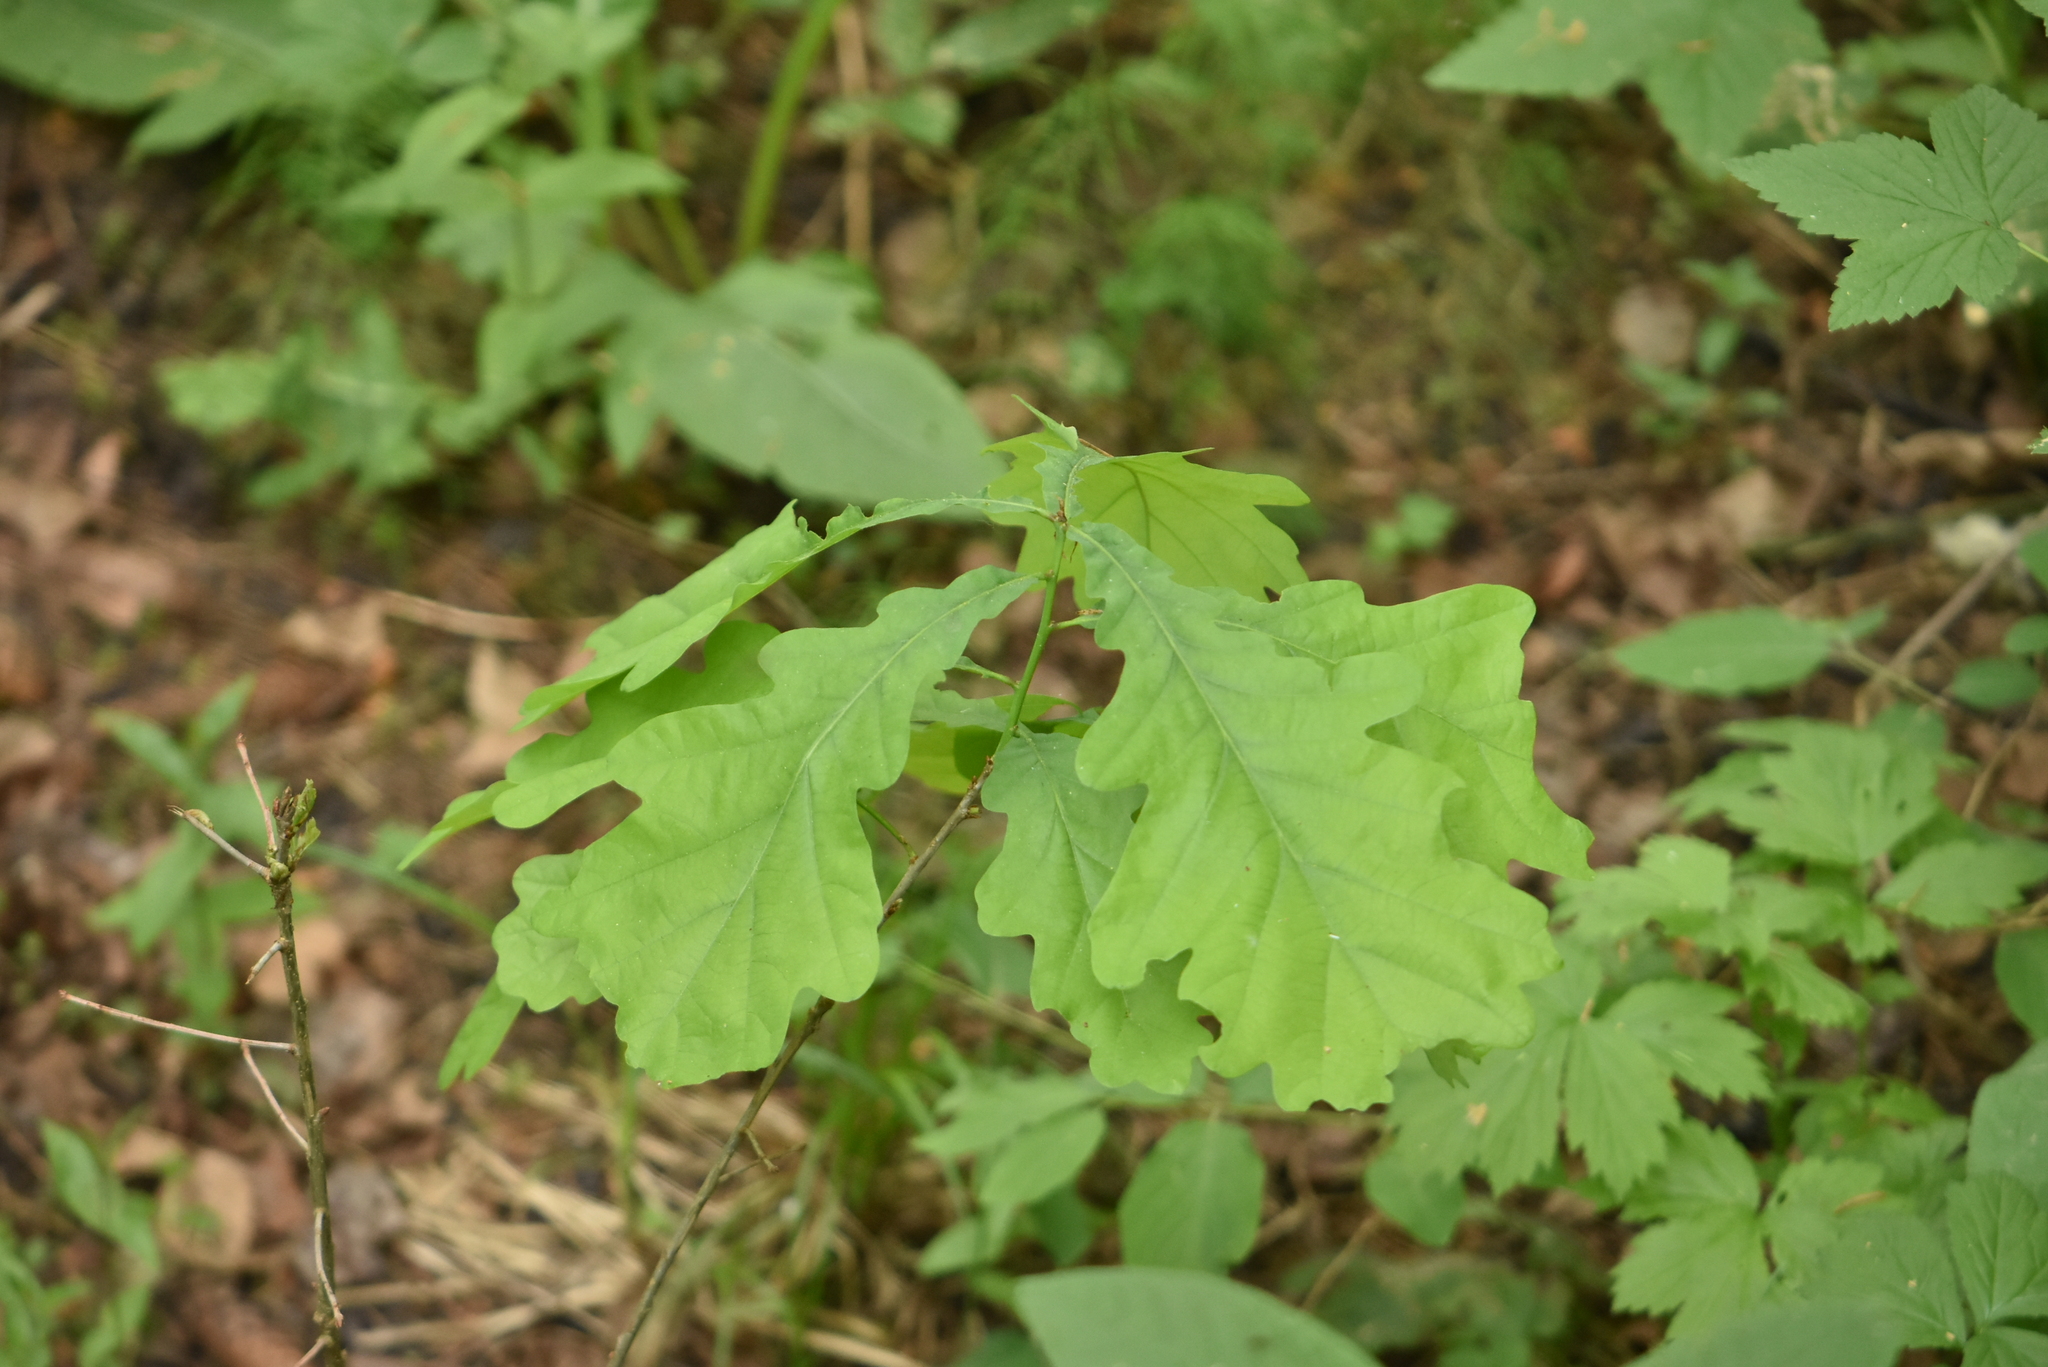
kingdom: Plantae
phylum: Tracheophyta
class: Magnoliopsida
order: Fagales
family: Fagaceae
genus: Quercus
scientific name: Quercus robur
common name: Pedunculate oak
